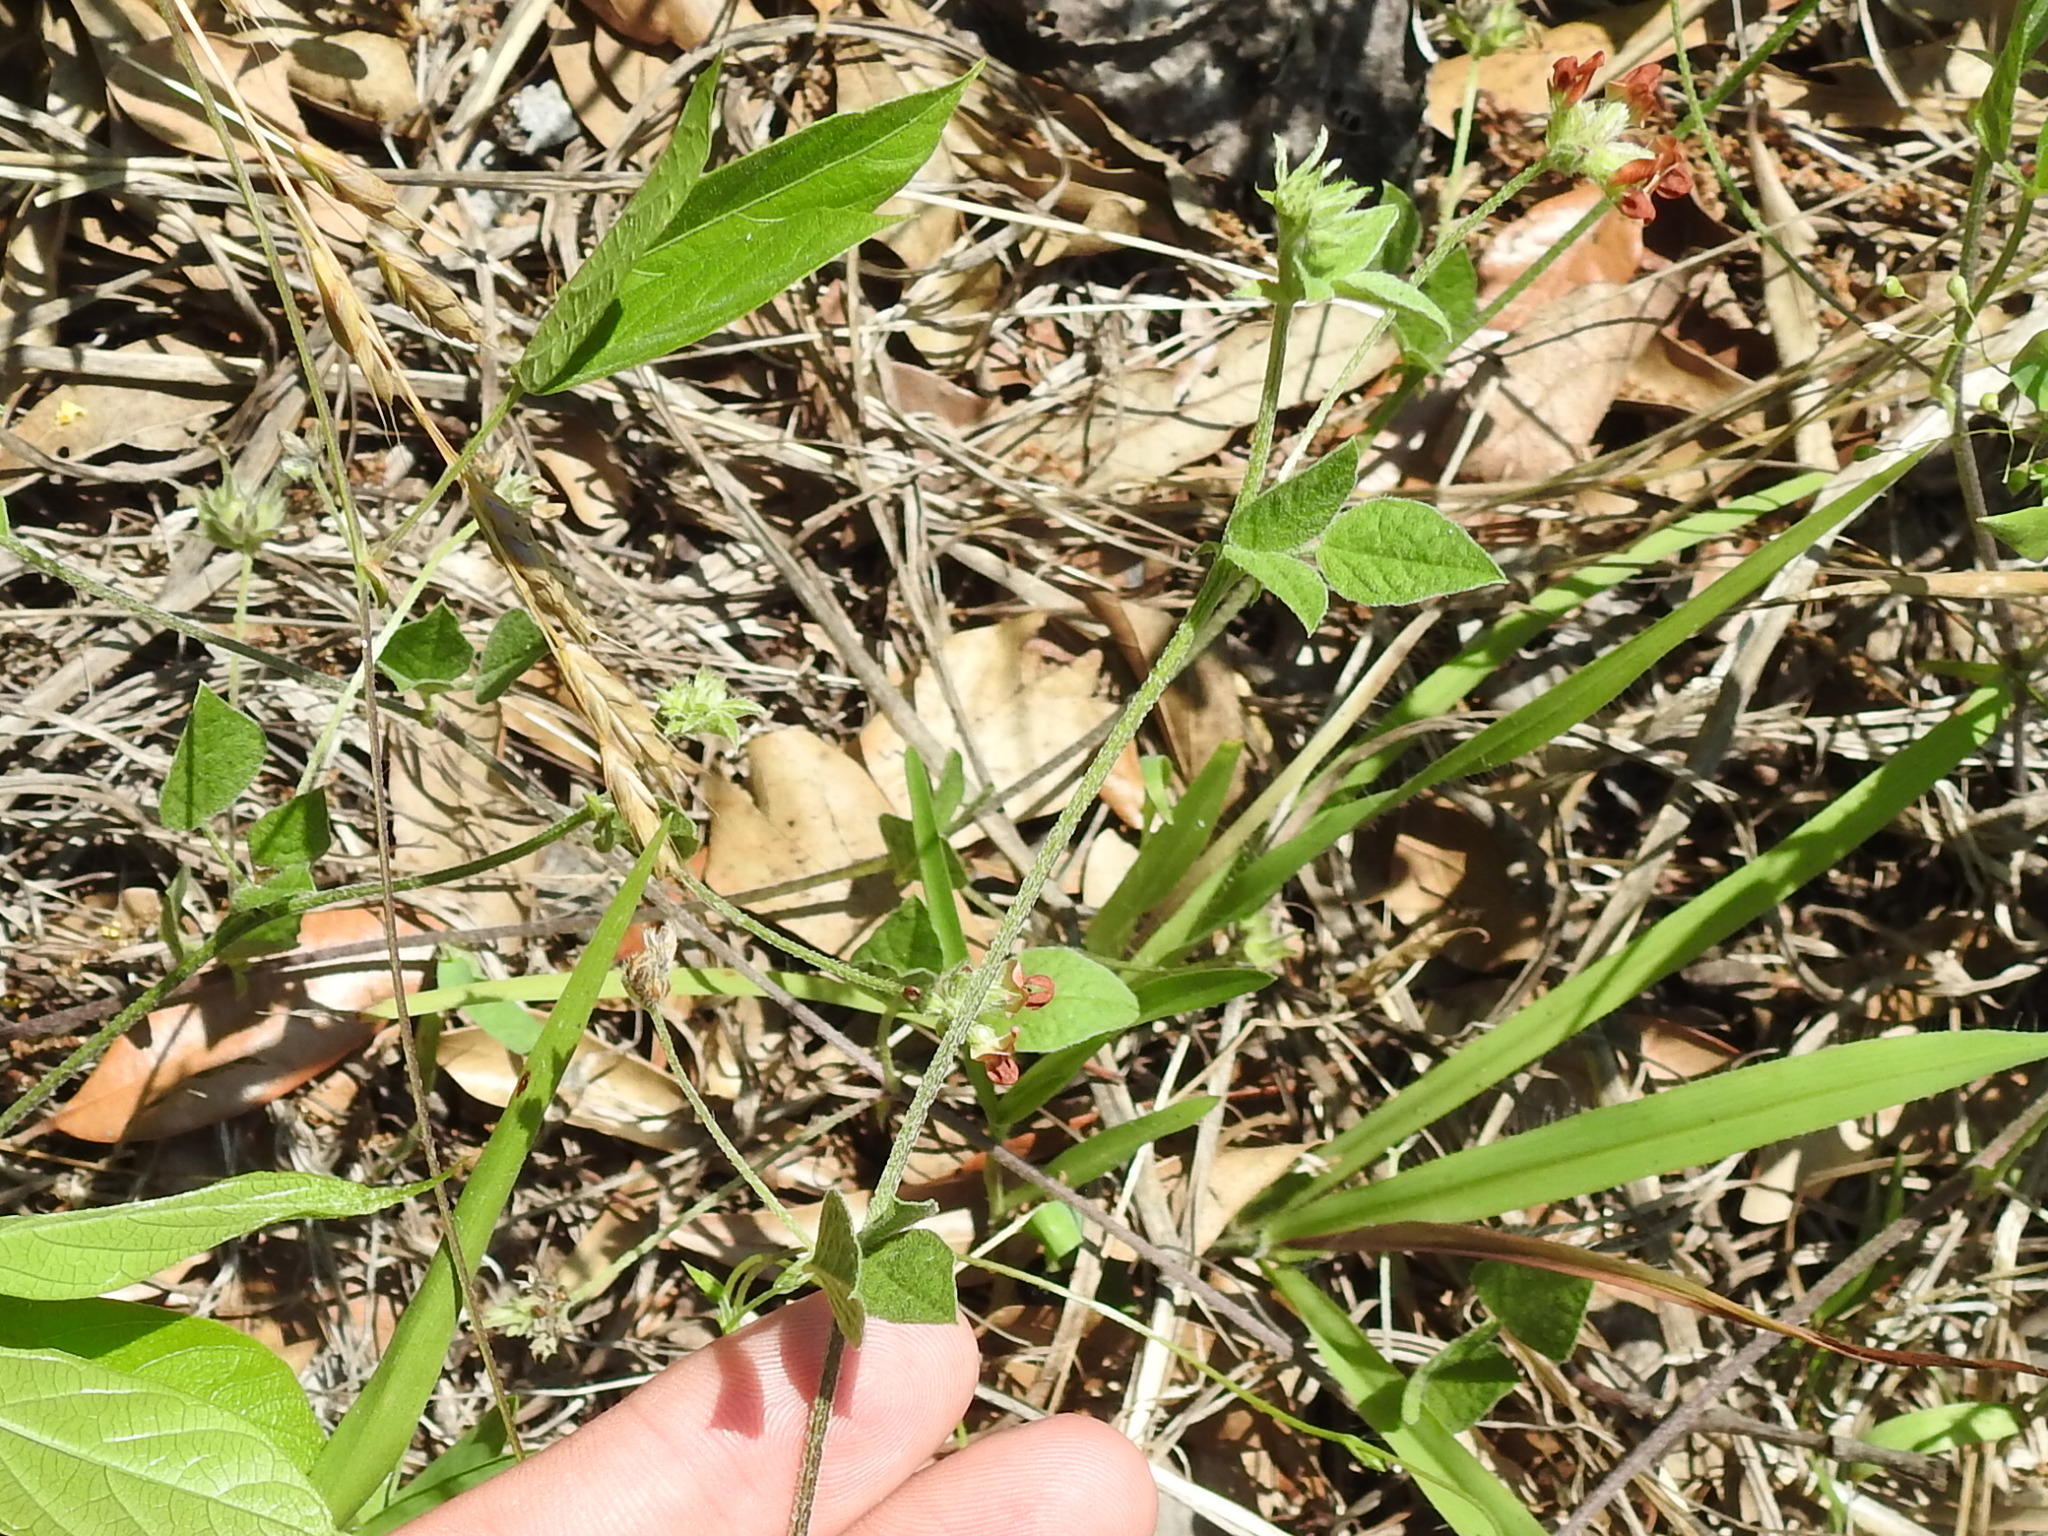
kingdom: Plantae
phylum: Tracheophyta
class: Magnoliopsida
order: Fabales
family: Fabaceae
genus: Pediomelum
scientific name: Pediomelum rhombifolium
